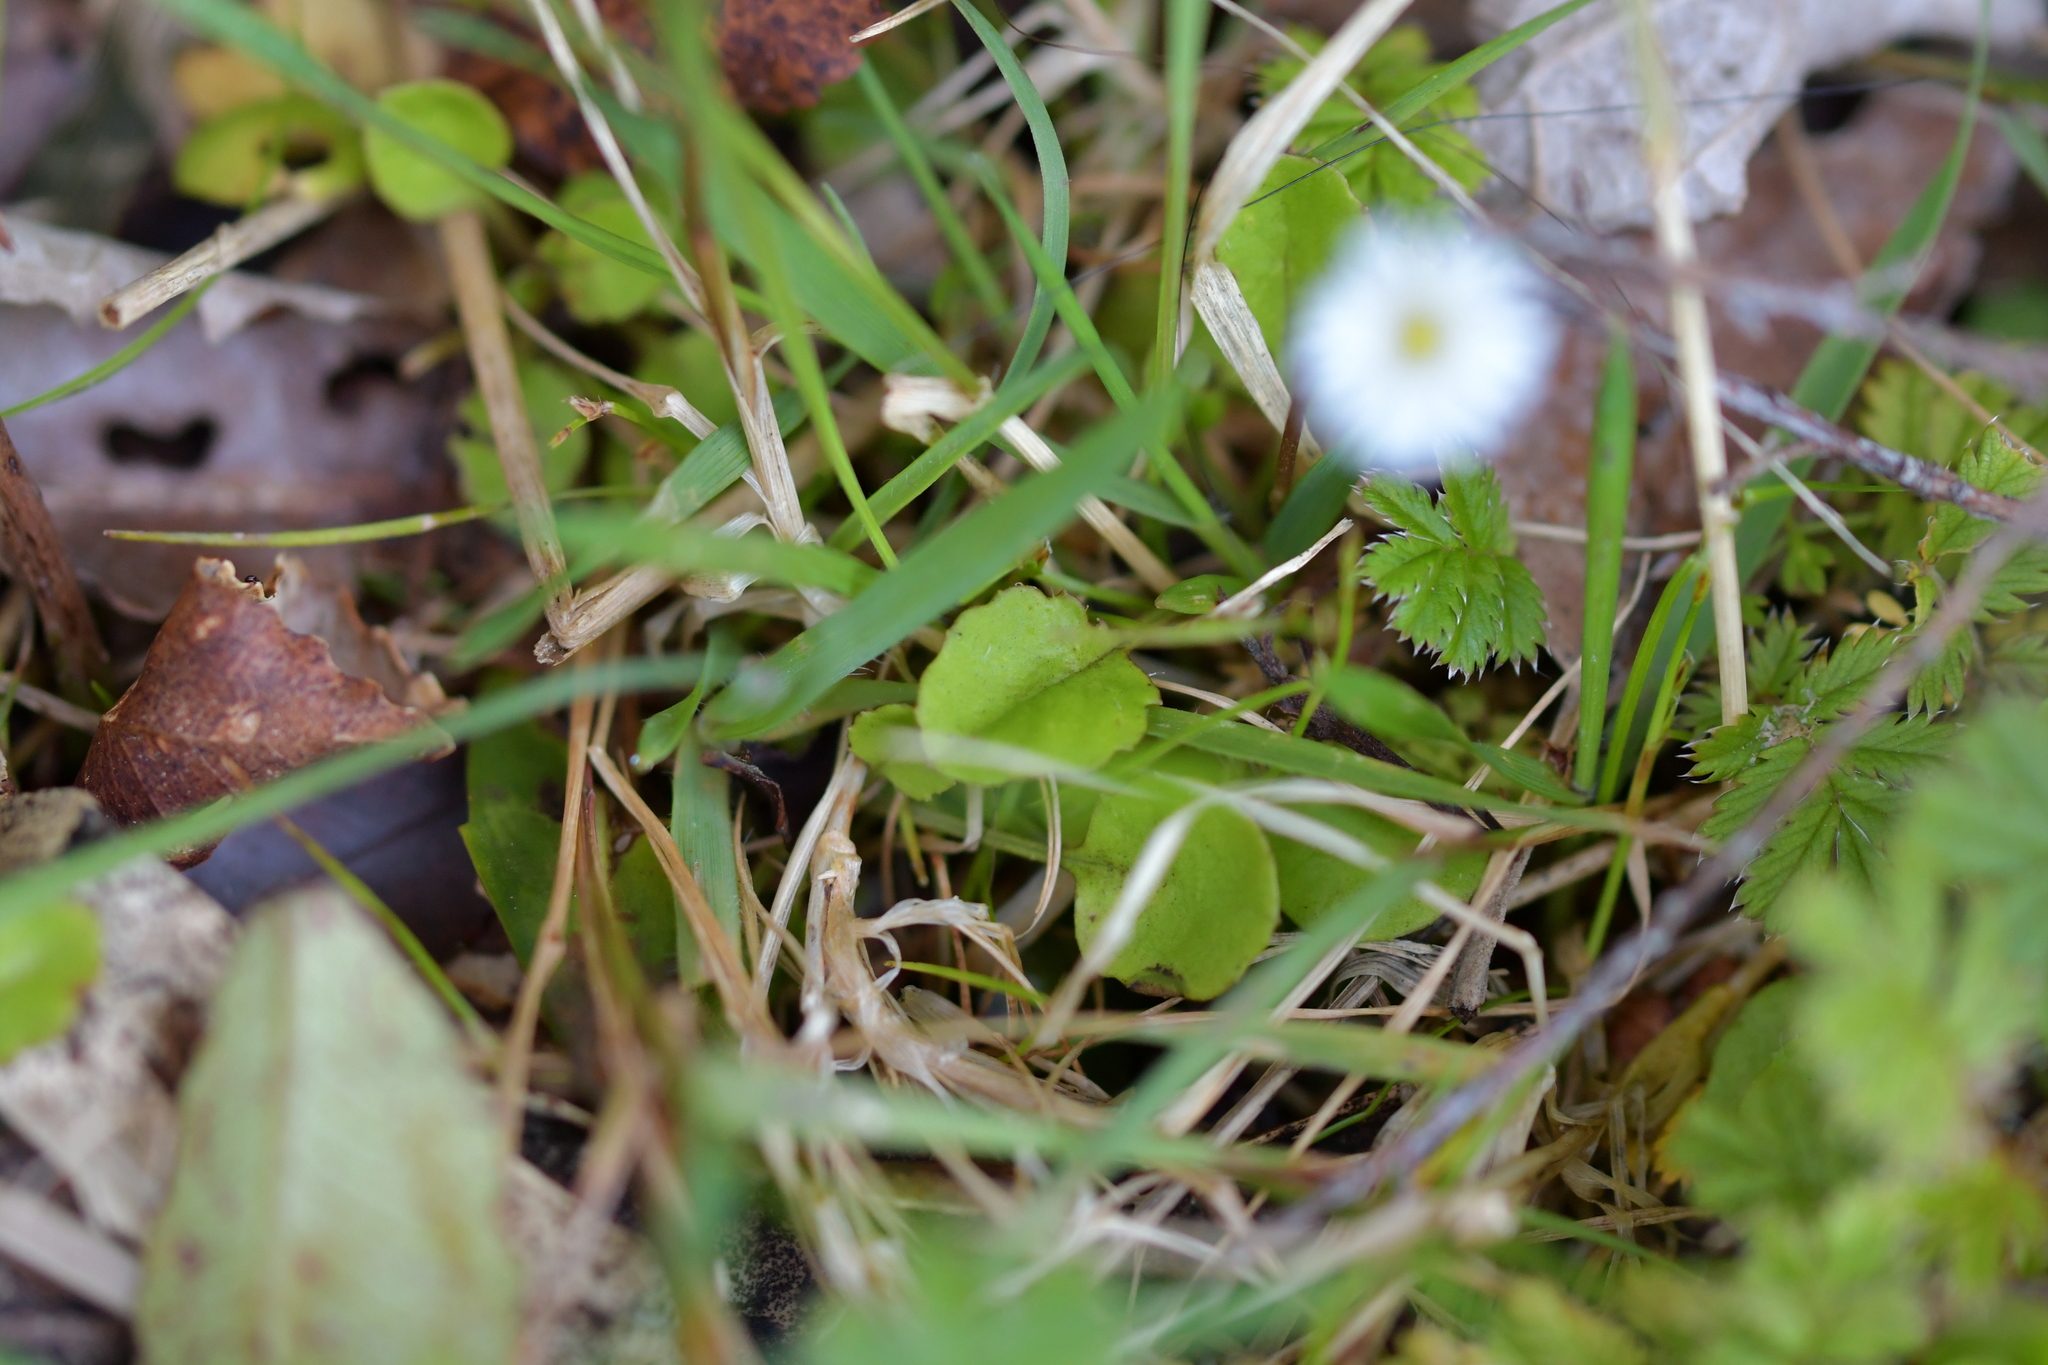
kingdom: Plantae
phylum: Tracheophyta
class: Magnoliopsida
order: Asterales
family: Asteraceae
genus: Lagenophora
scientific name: Lagenophora pumila
